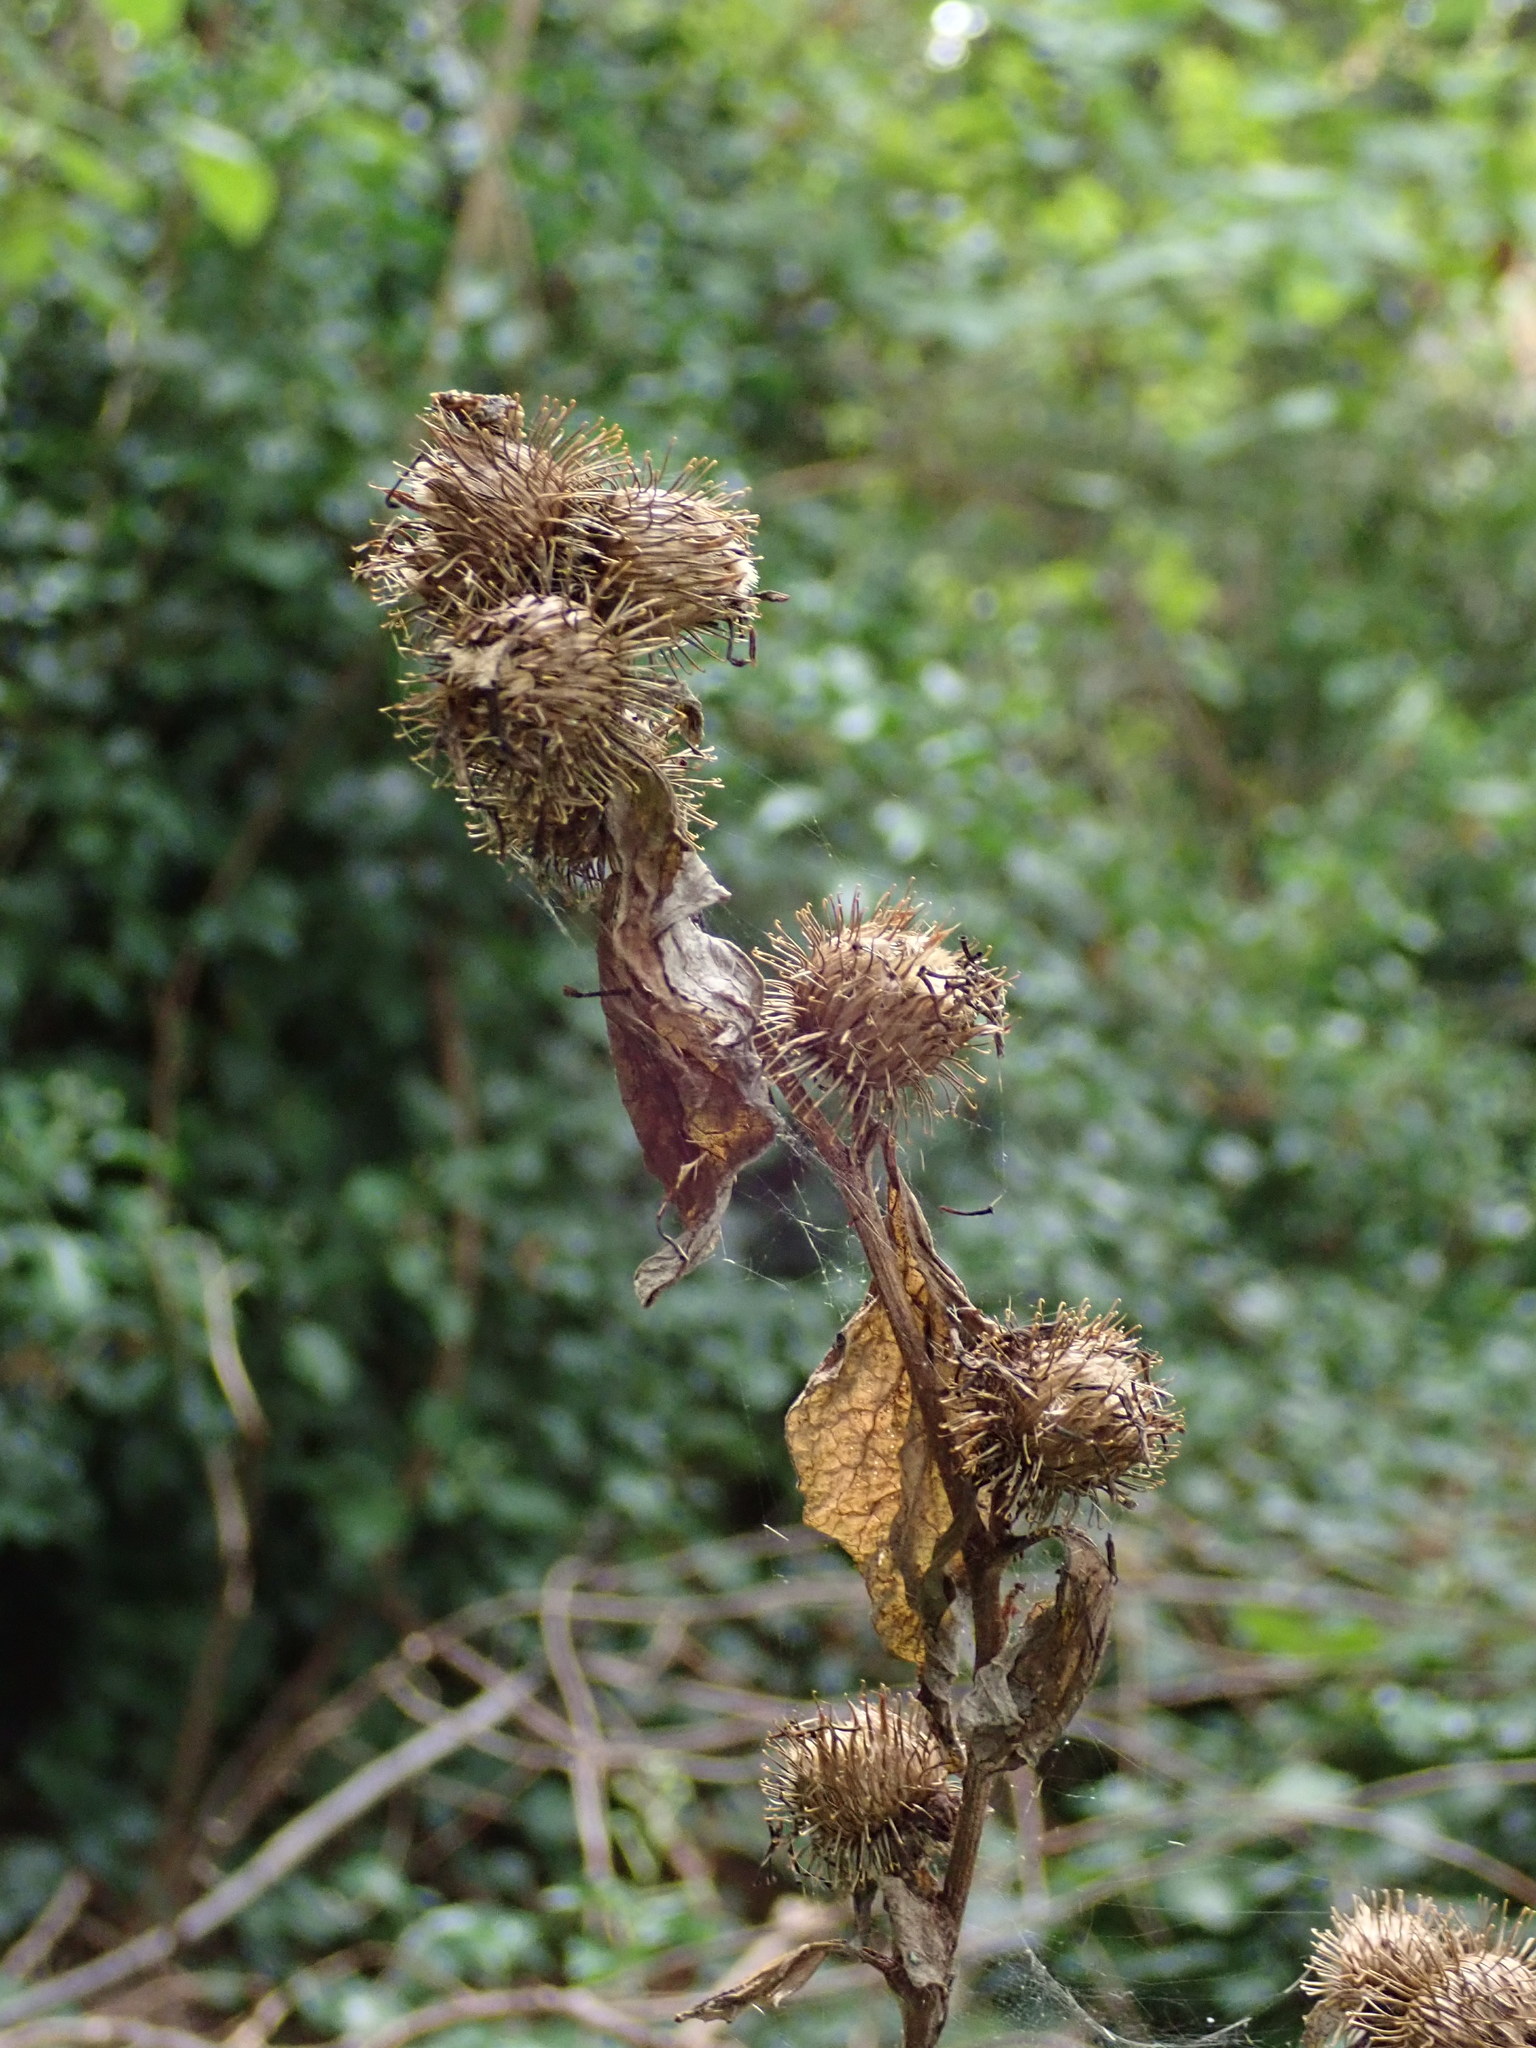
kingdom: Plantae
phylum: Tracheophyta
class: Magnoliopsida
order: Asterales
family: Asteraceae
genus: Arctium
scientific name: Arctium minus
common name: Lesser burdock
